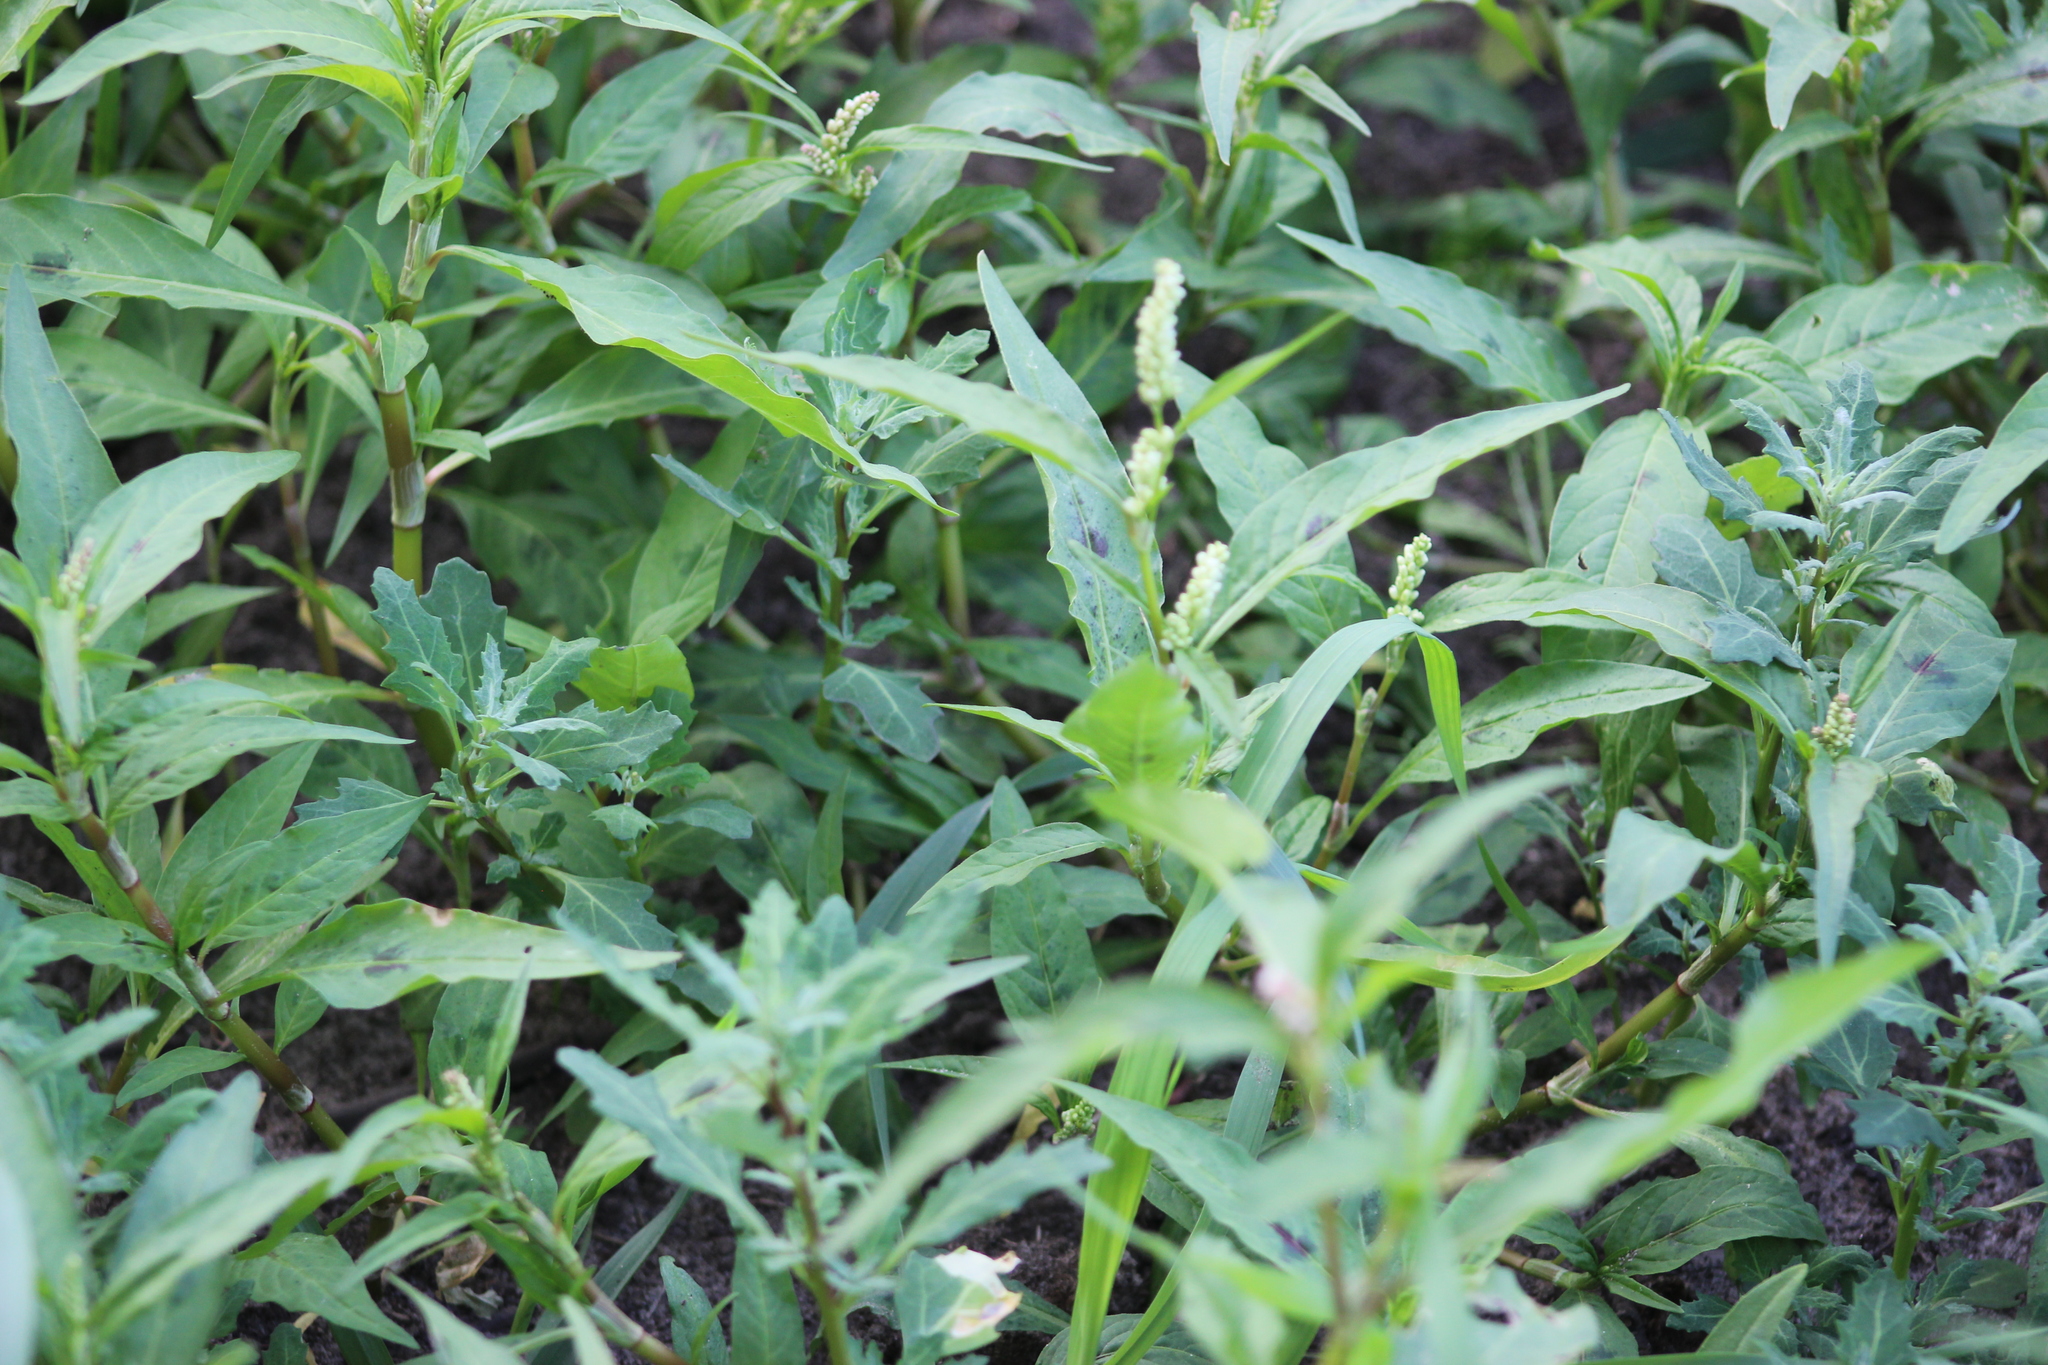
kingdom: Plantae
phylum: Tracheophyta
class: Magnoliopsida
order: Caryophyllales
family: Polygonaceae
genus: Persicaria
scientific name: Persicaria lapathifolia
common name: Curlytop knotweed
